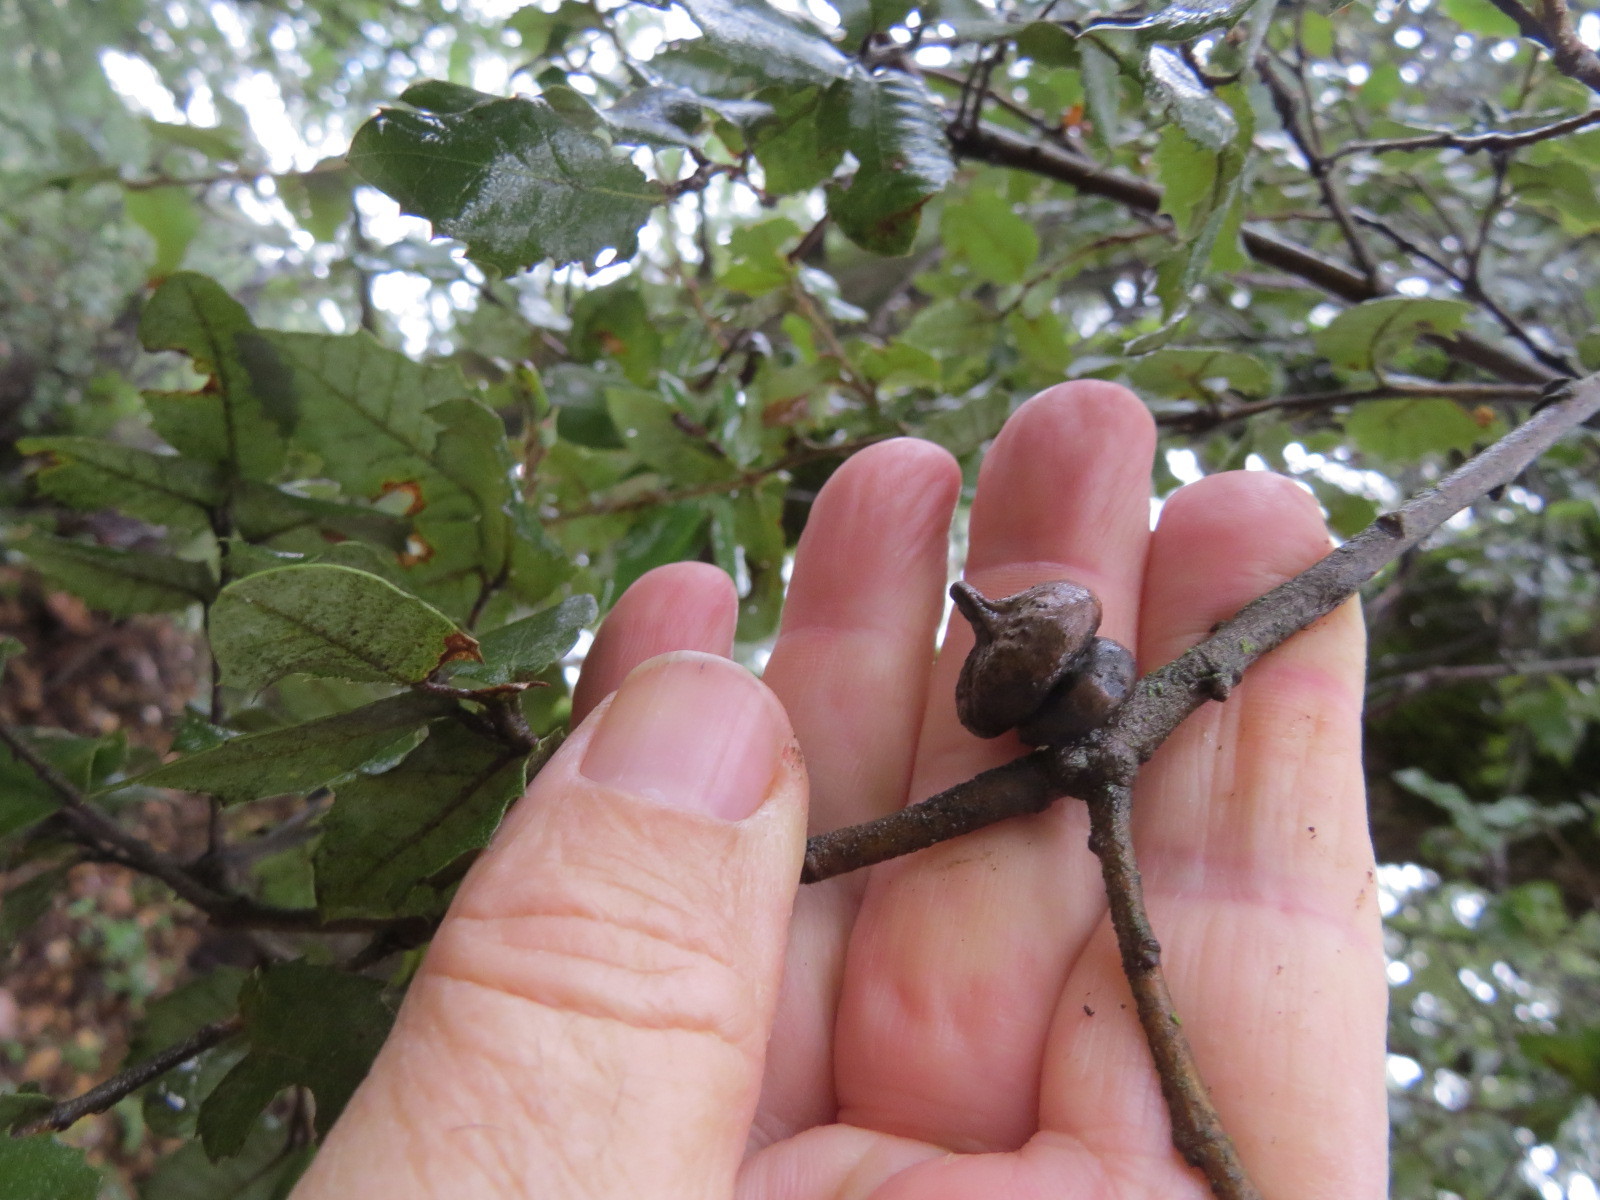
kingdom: Animalia
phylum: Arthropoda
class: Insecta
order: Hymenoptera
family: Cynipidae
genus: Heteroecus
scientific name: Heteroecus
